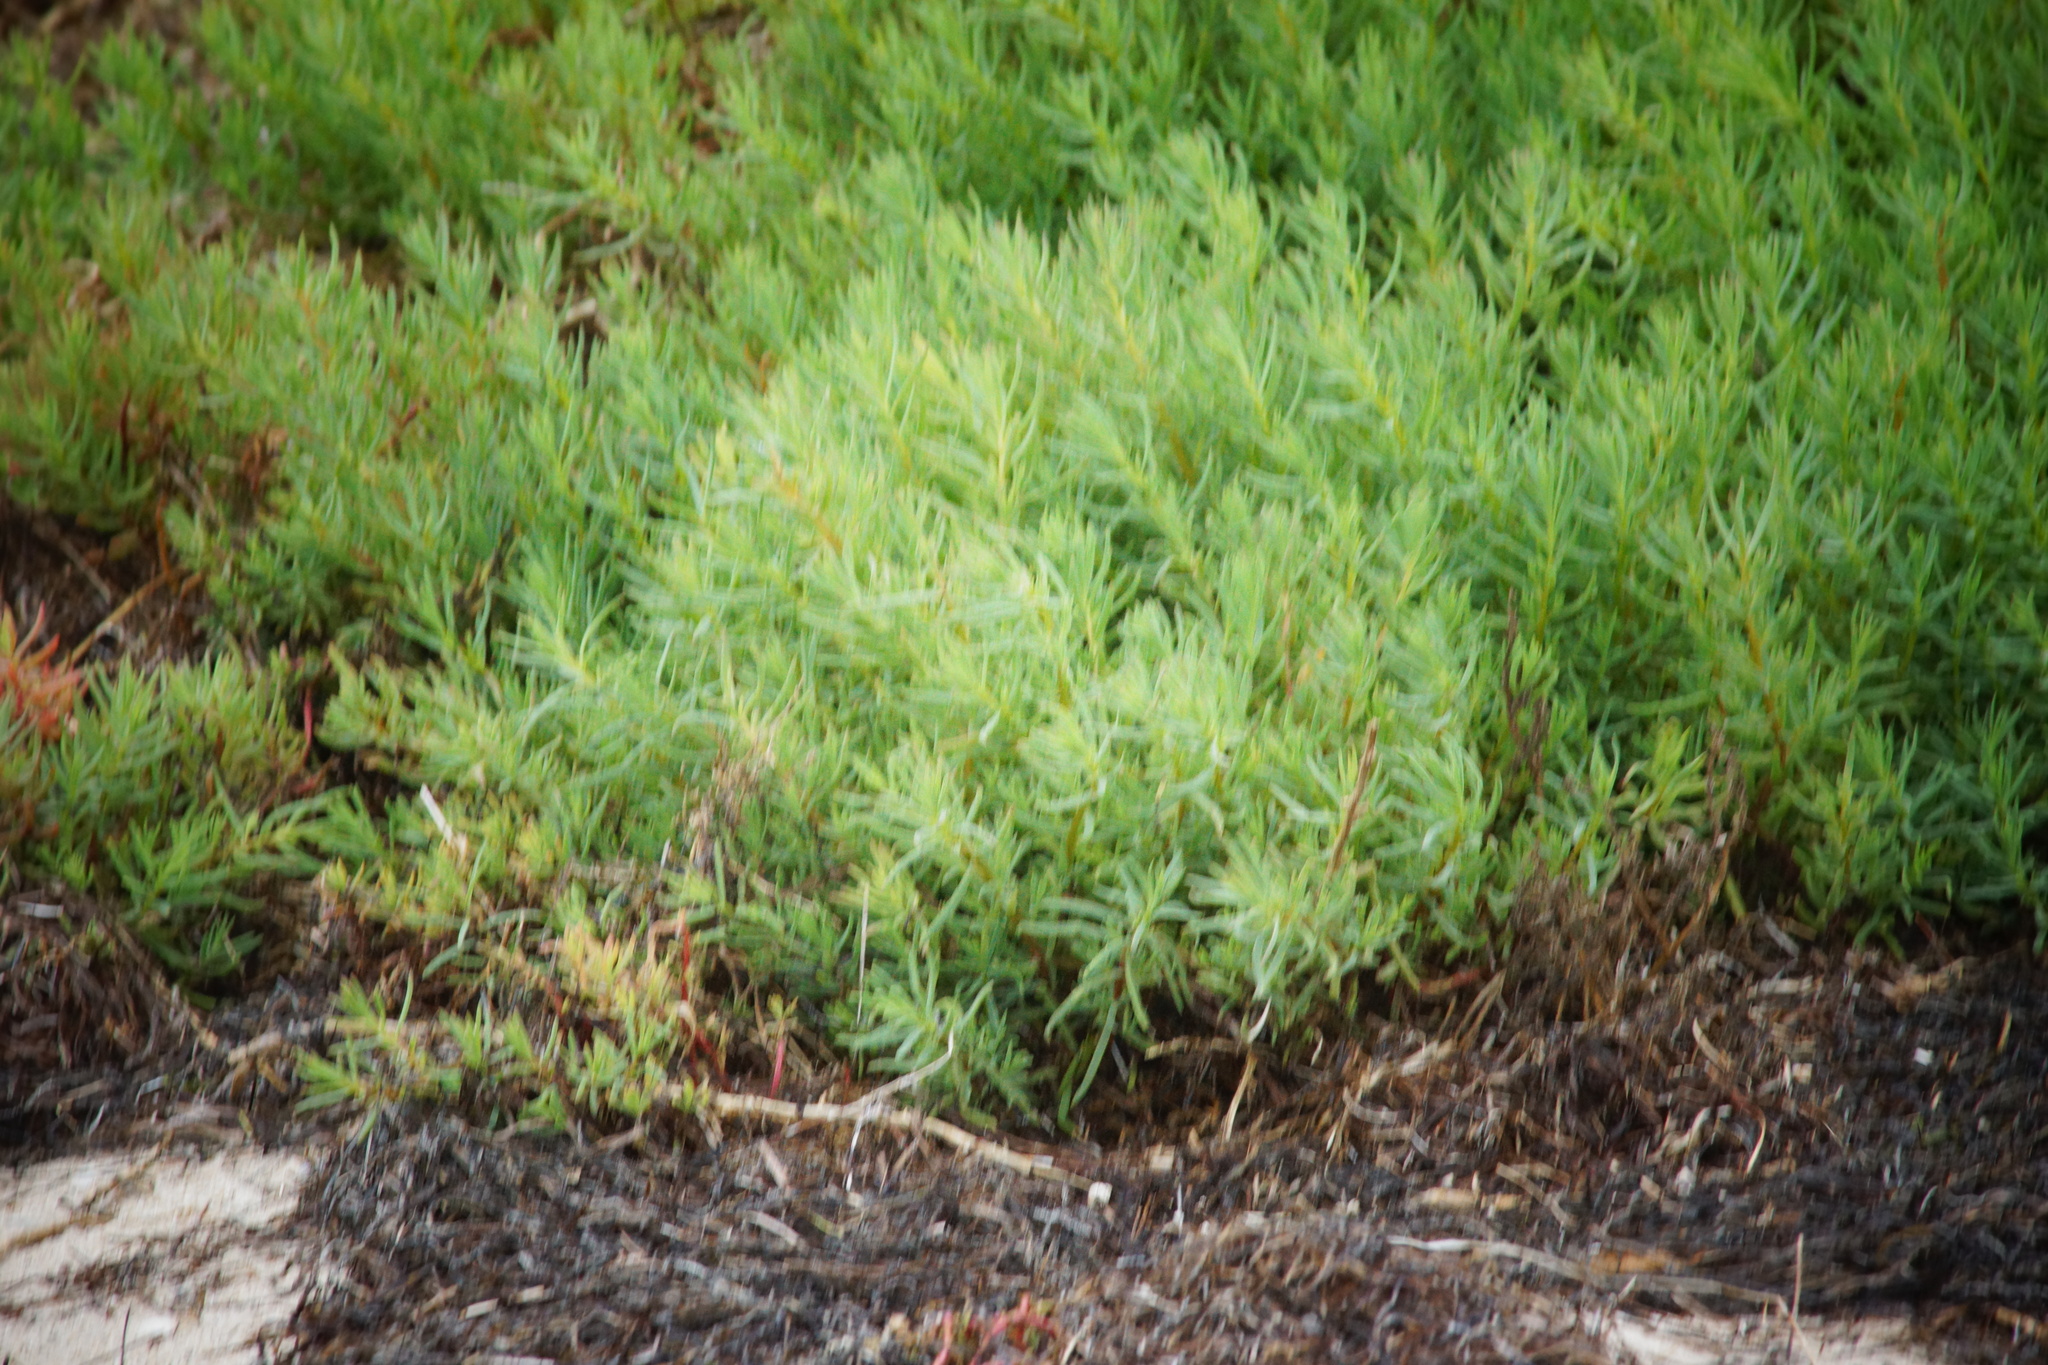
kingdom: Plantae
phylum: Tracheophyta
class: Magnoliopsida
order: Caryophyllales
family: Amaranthaceae
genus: Suaeda
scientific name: Suaeda australis
